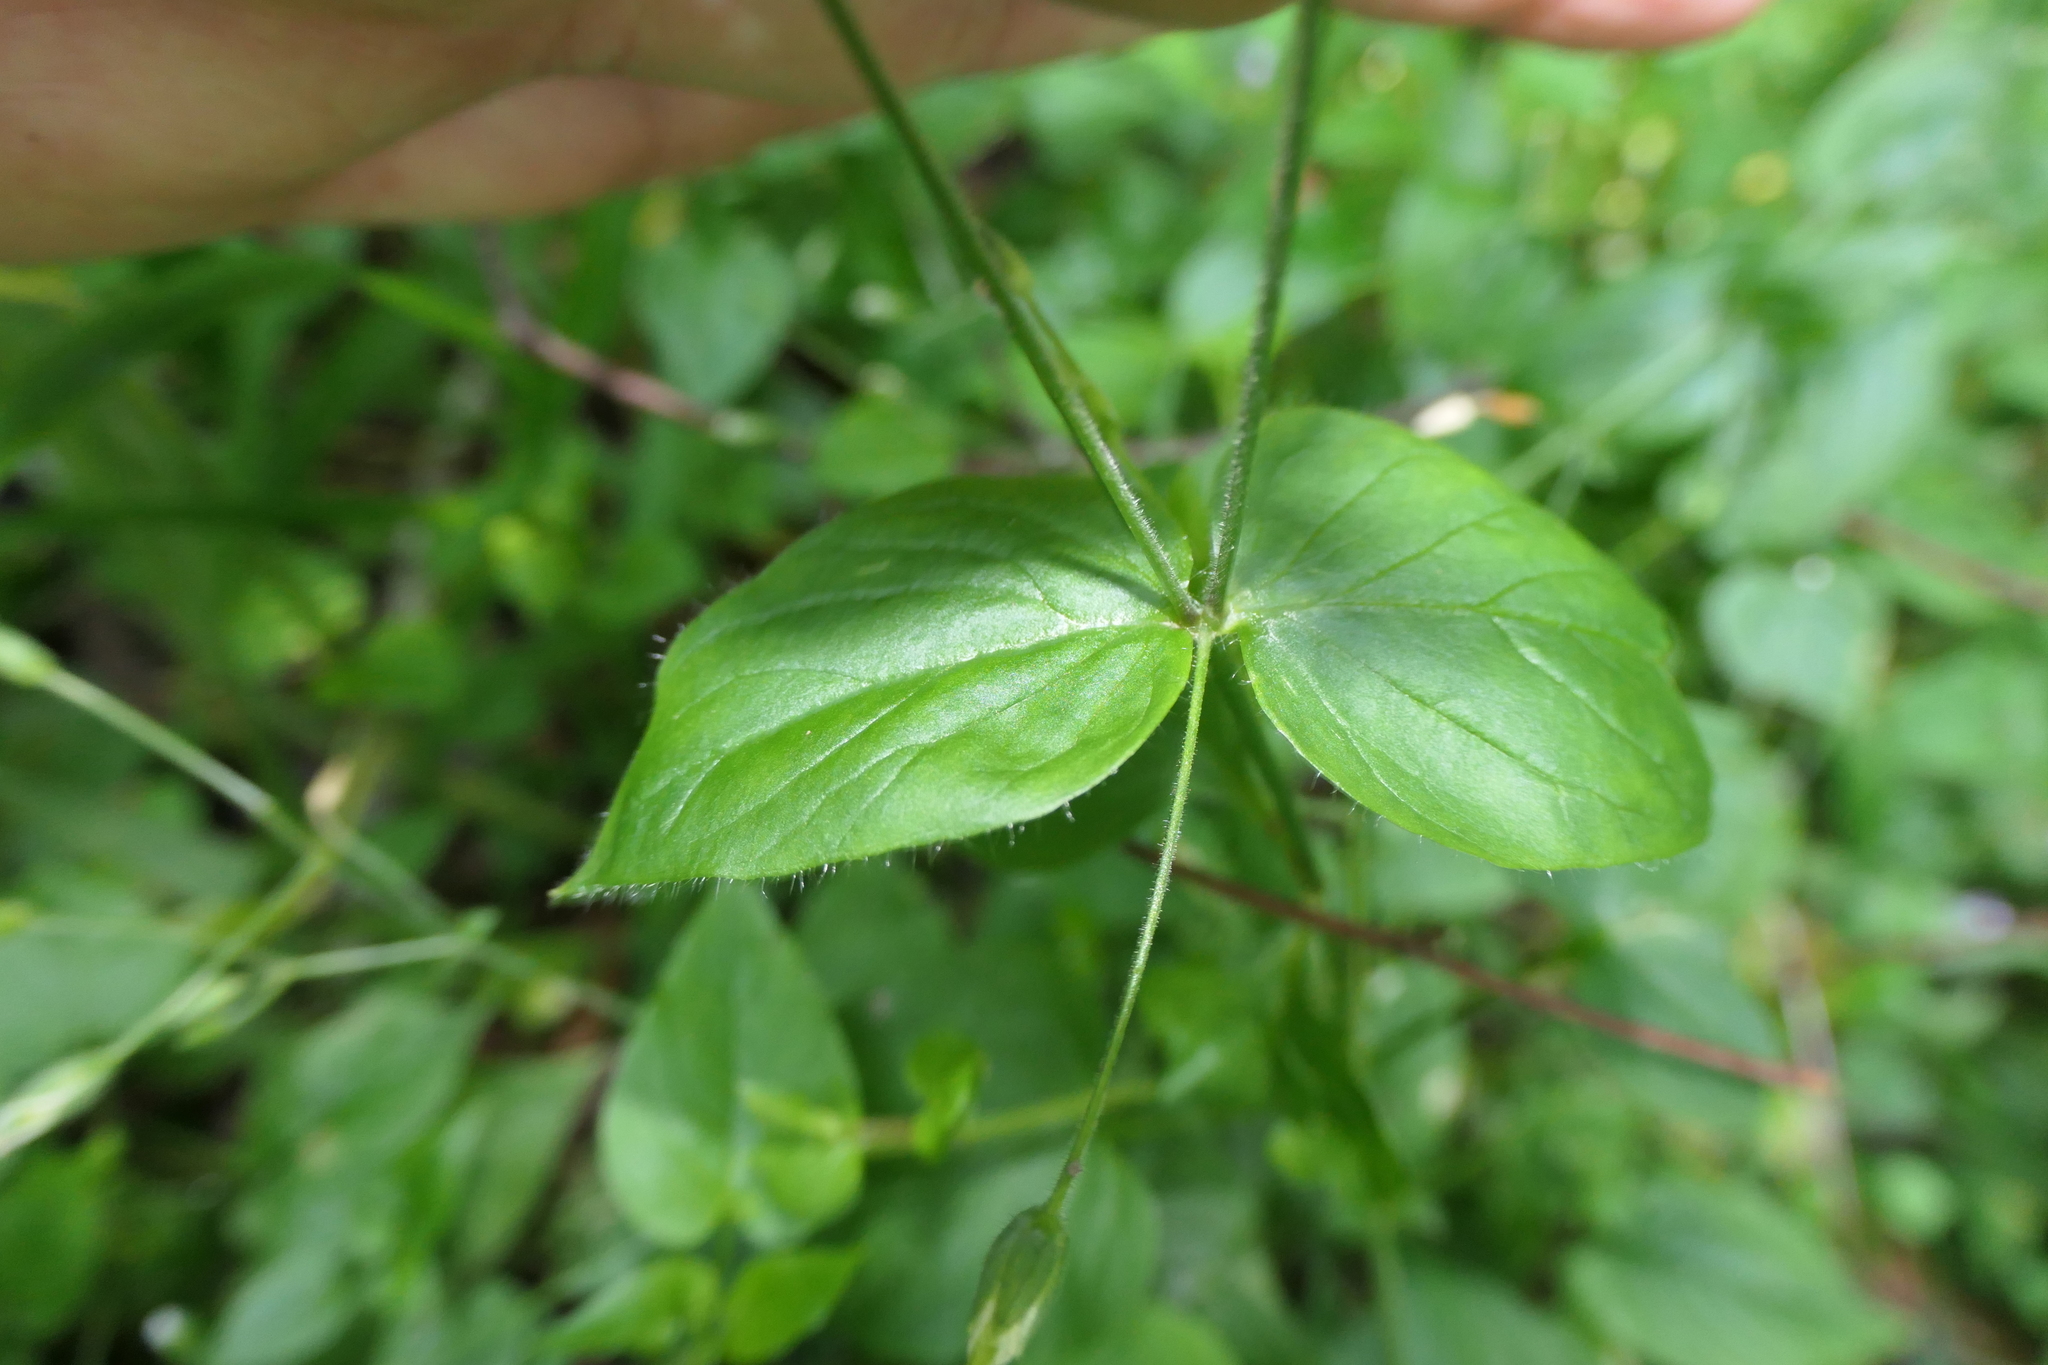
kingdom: Plantae
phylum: Tracheophyta
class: Magnoliopsida
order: Caryophyllales
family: Caryophyllaceae
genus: Stellaria
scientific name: Stellaria glochidisperma
